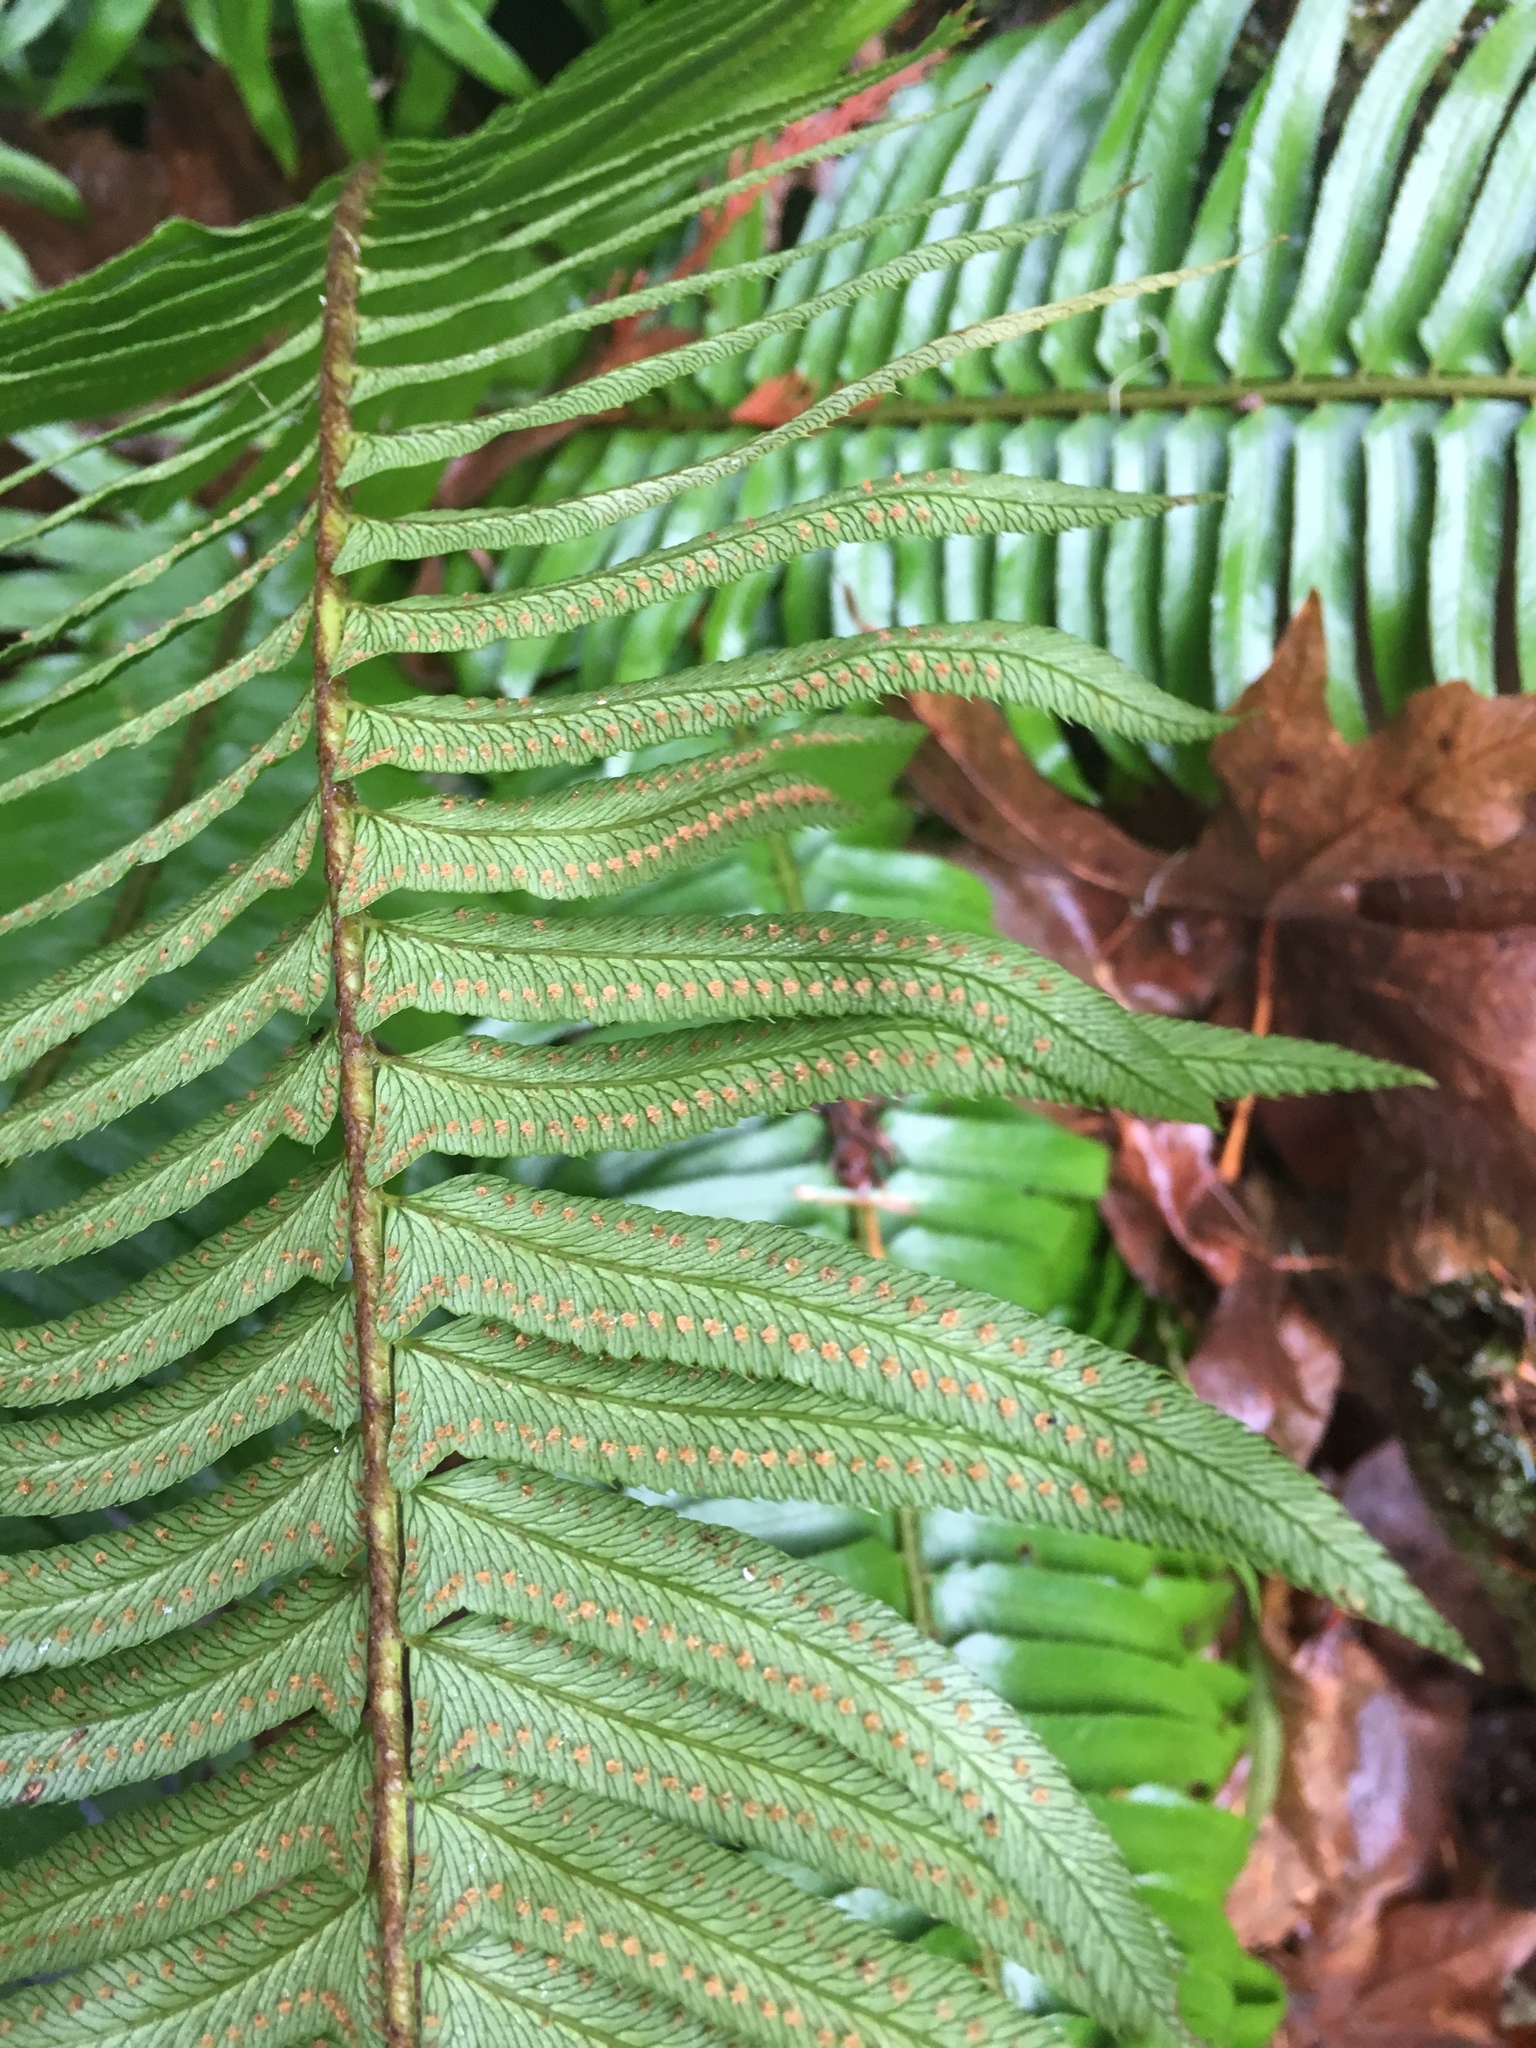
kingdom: Plantae
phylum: Tracheophyta
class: Polypodiopsida
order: Polypodiales
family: Dryopteridaceae
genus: Polystichum
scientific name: Polystichum munitum
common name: Western sword-fern
